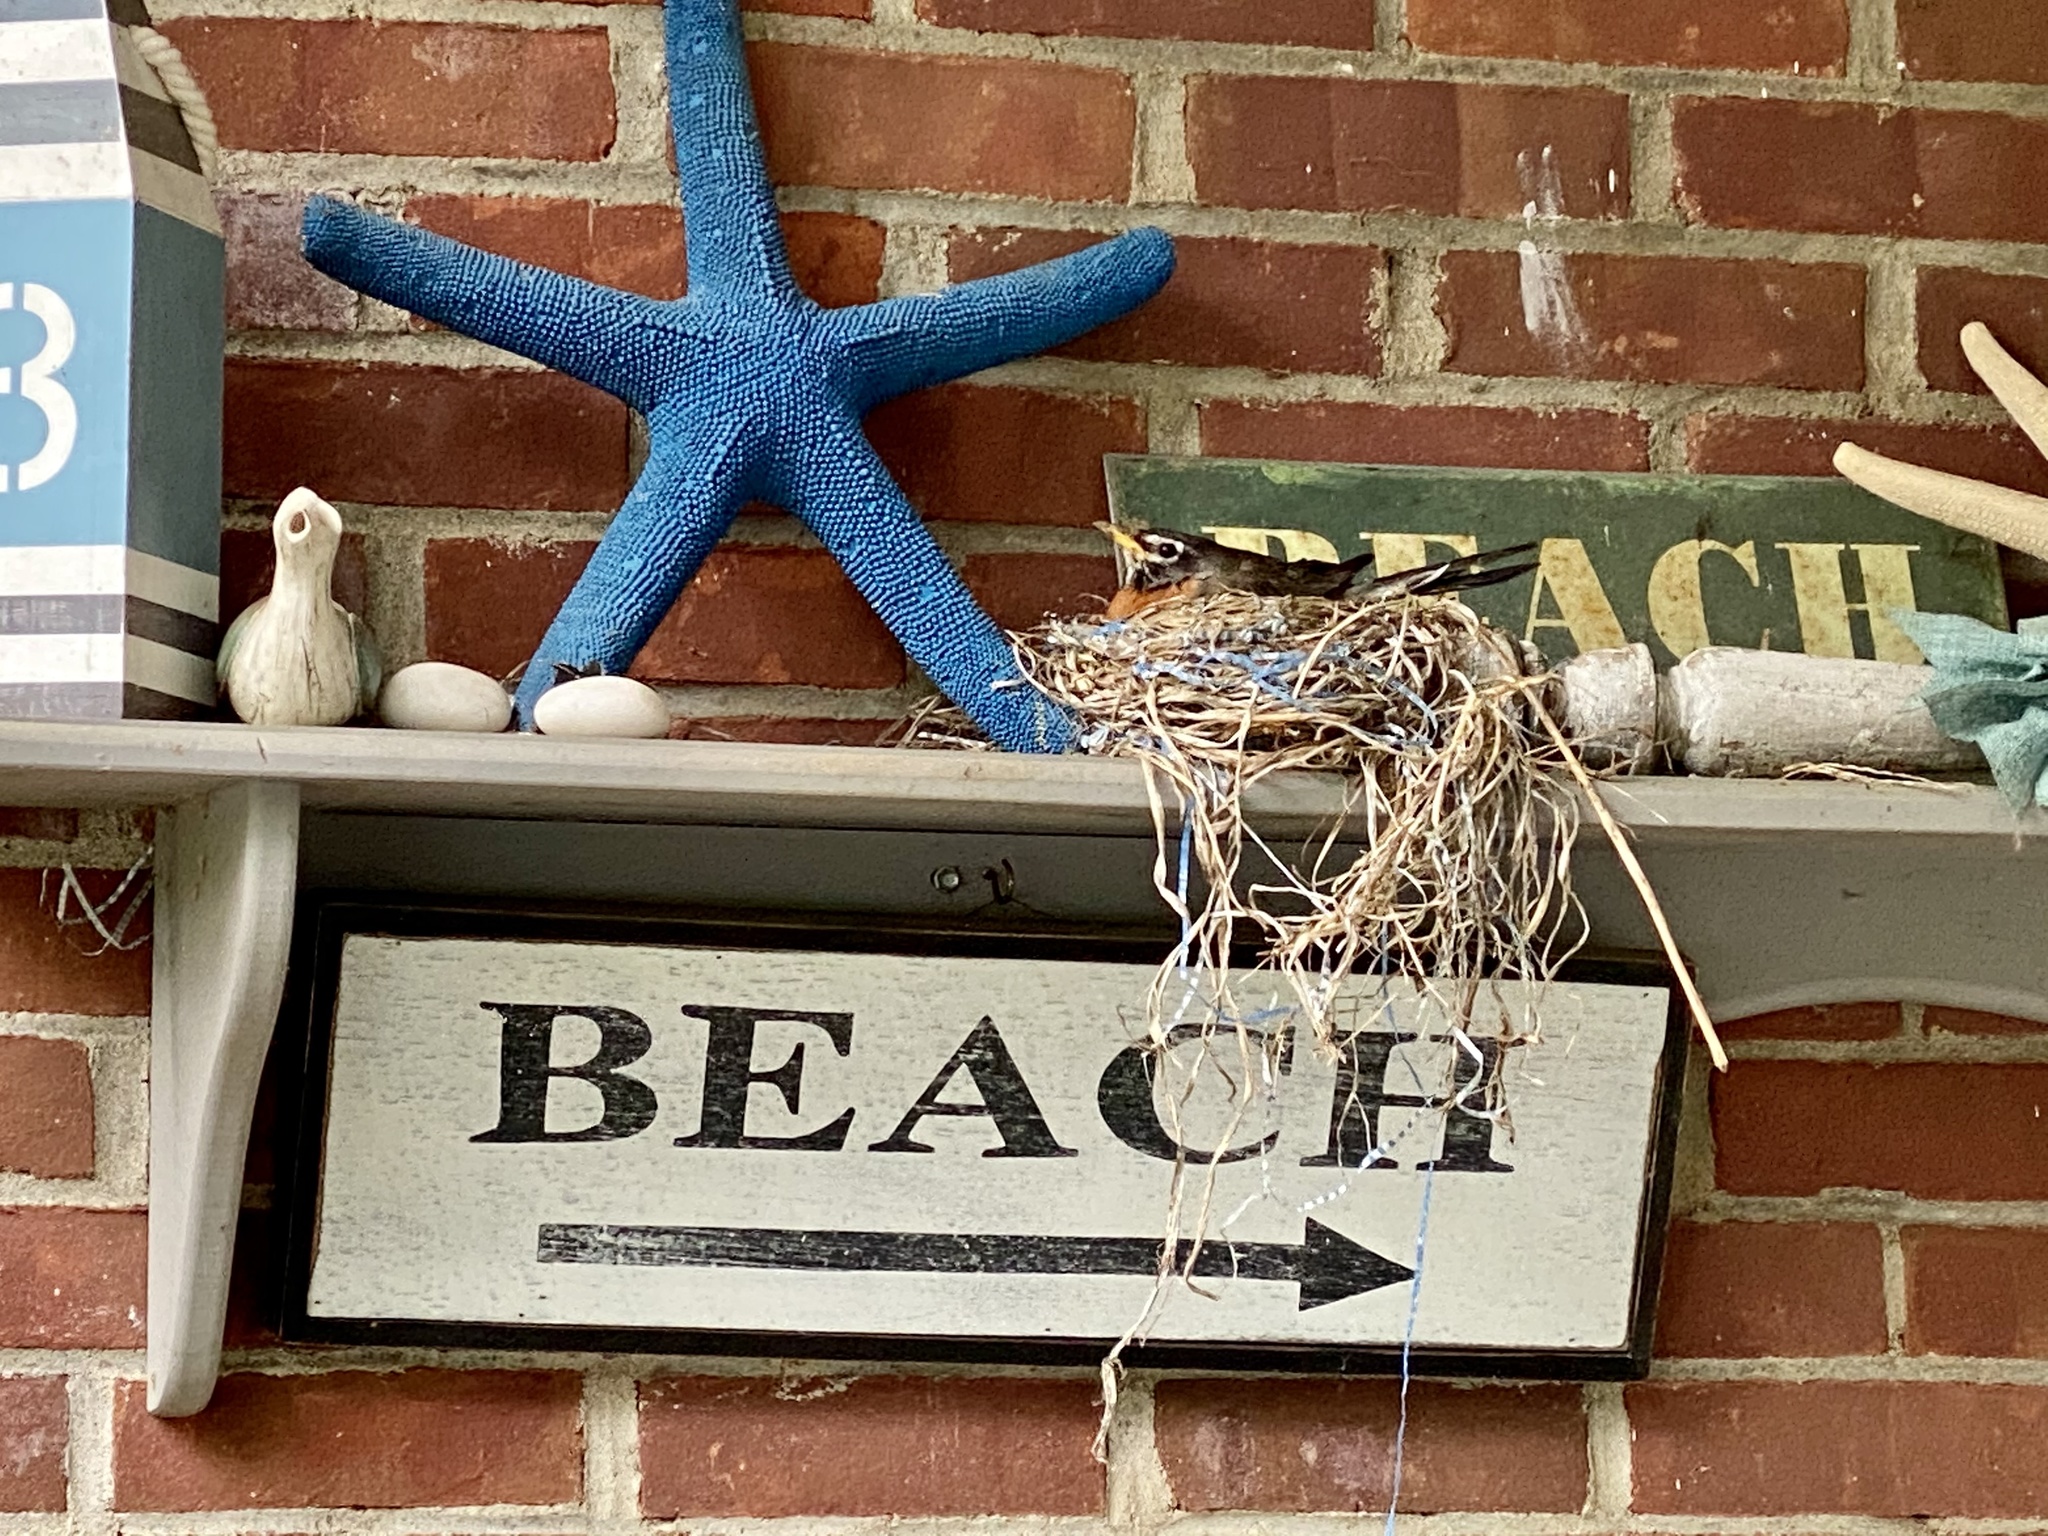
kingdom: Animalia
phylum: Chordata
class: Aves
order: Passeriformes
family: Turdidae
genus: Turdus
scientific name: Turdus migratorius
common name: American robin
